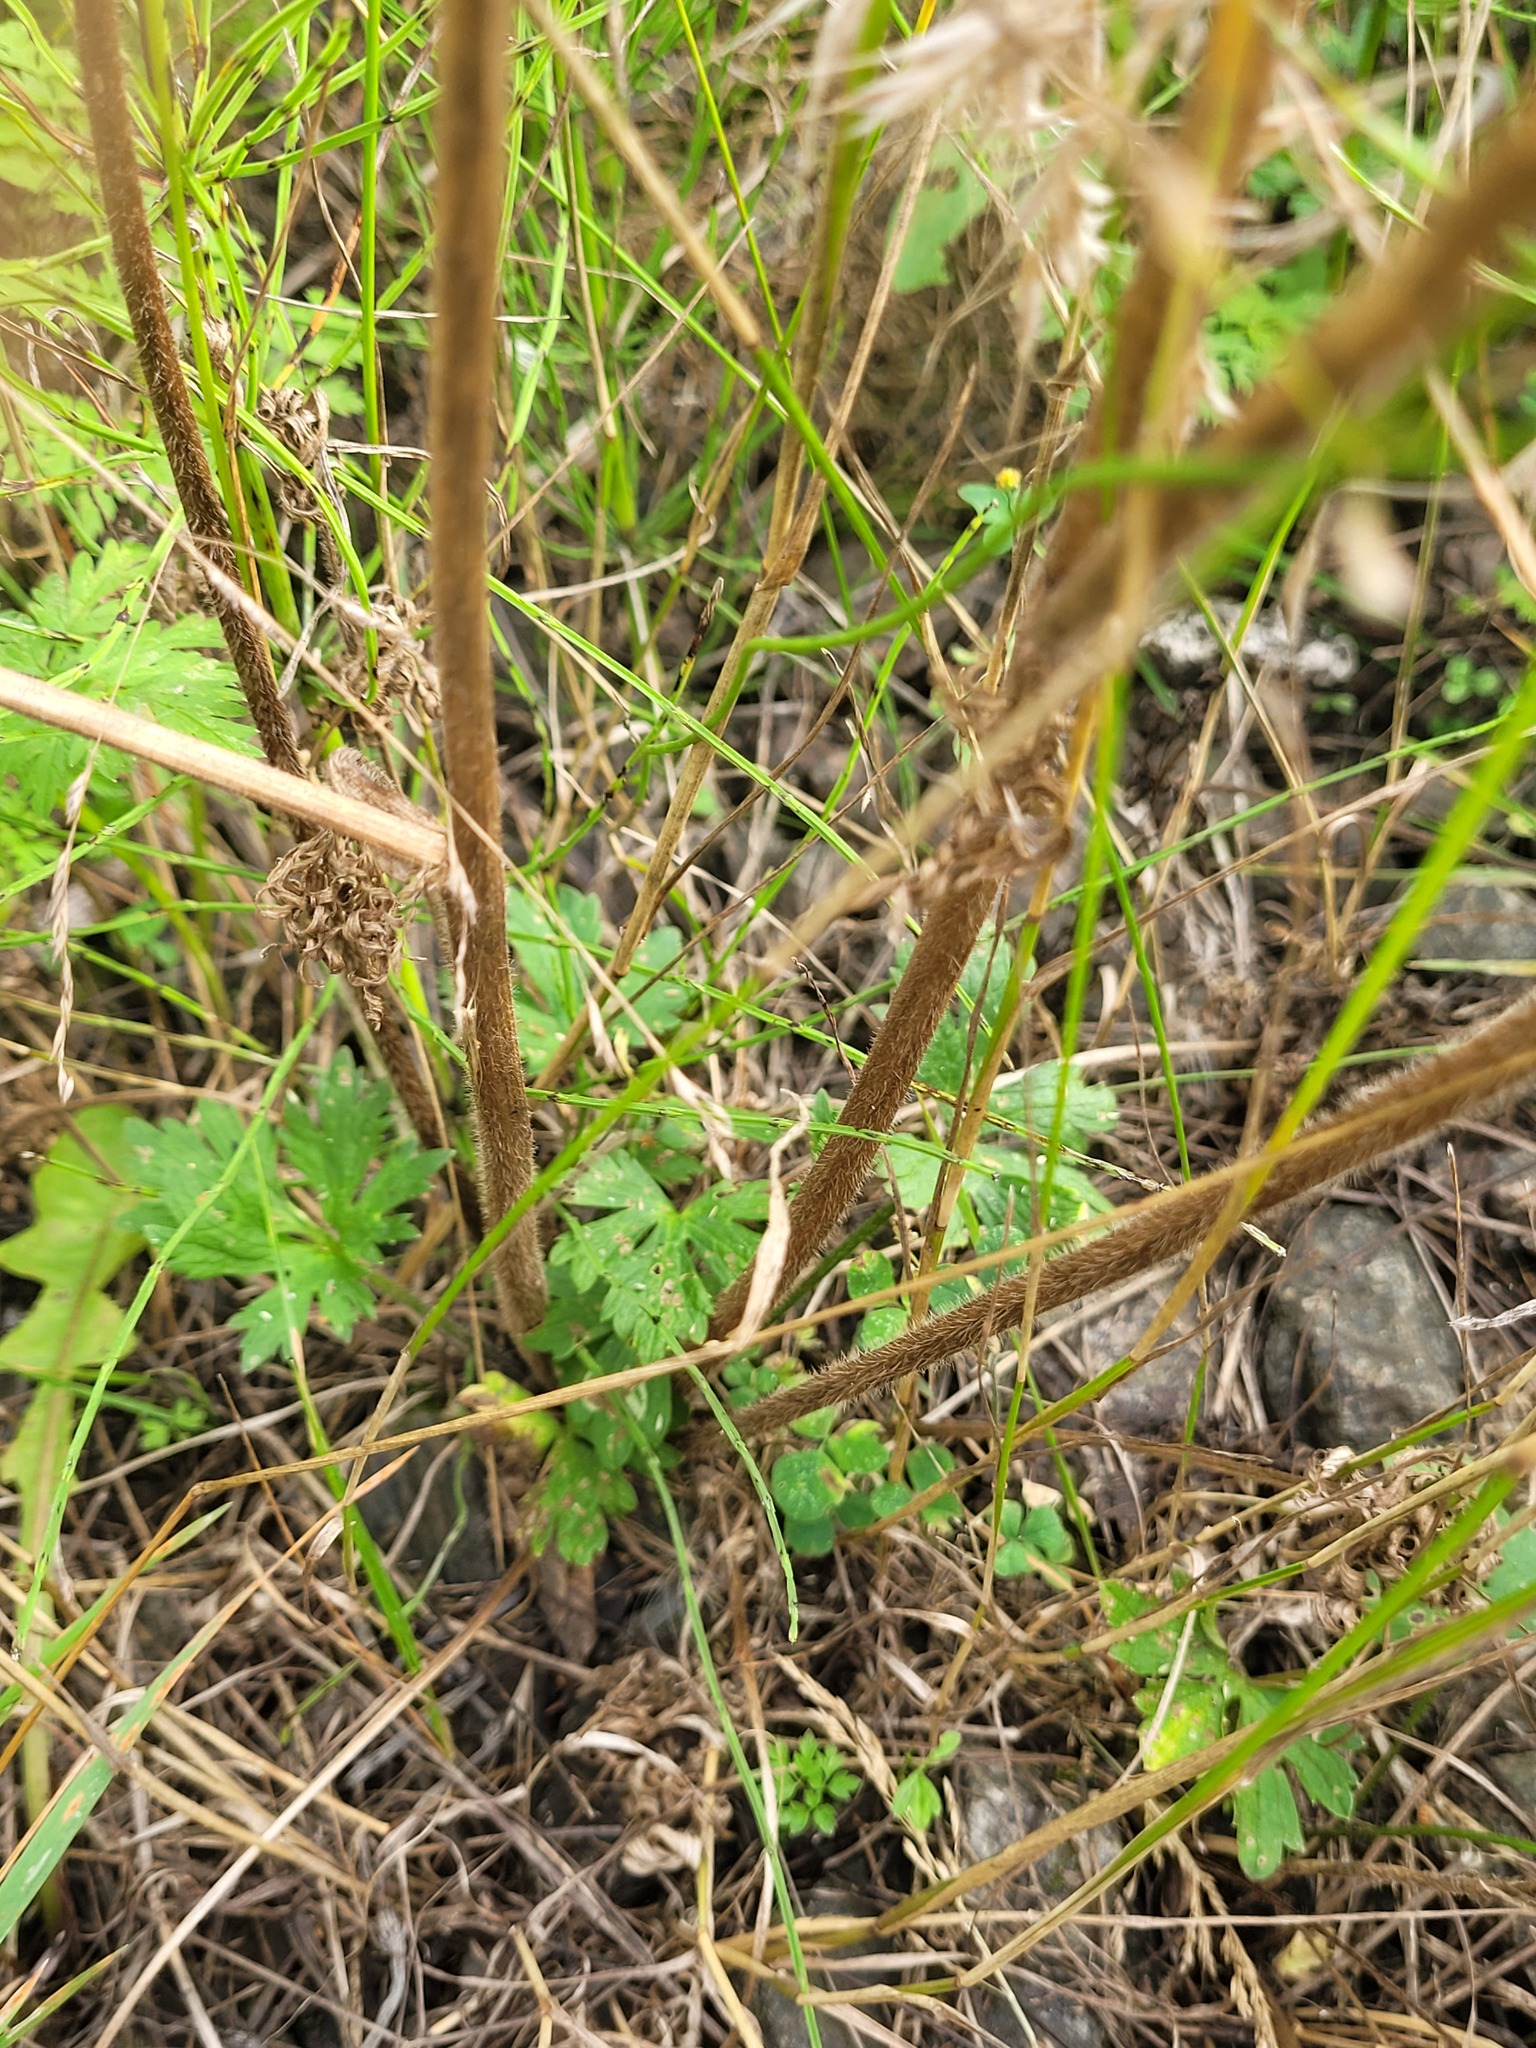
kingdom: Plantae
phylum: Tracheophyta
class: Magnoliopsida
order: Ranunculales
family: Ranunculaceae
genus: Ranunculus
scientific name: Ranunculus polyanthemos
